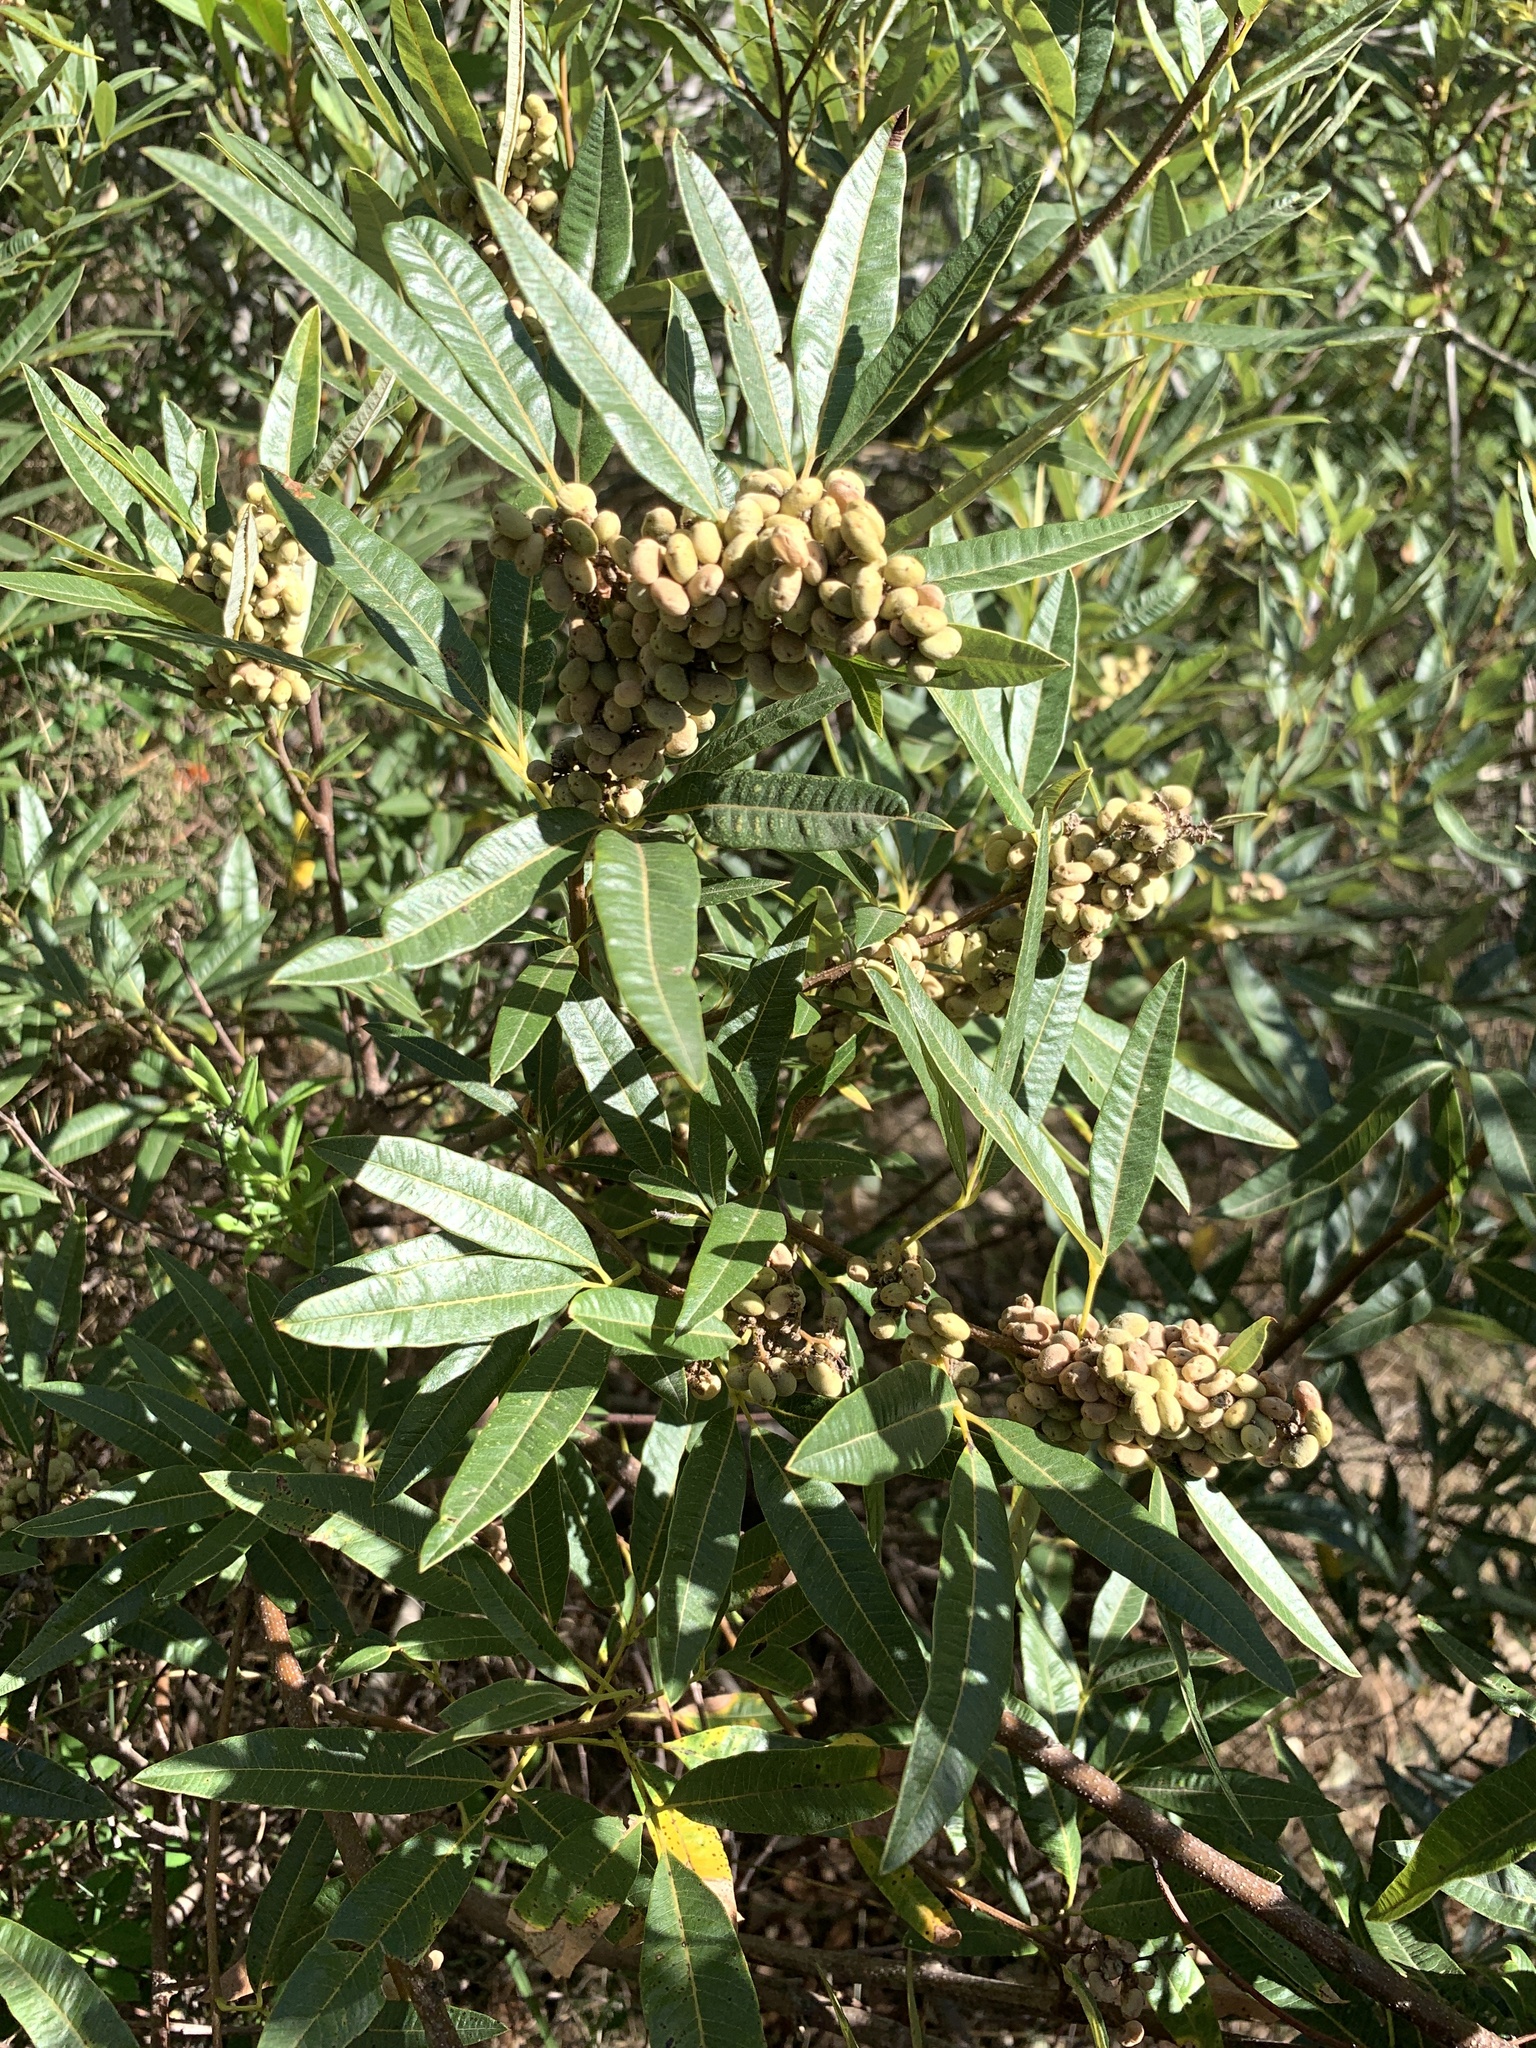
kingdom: Plantae
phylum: Tracheophyta
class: Magnoliopsida
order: Sapindales
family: Anacardiaceae
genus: Searsia
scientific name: Searsia angustifolia
